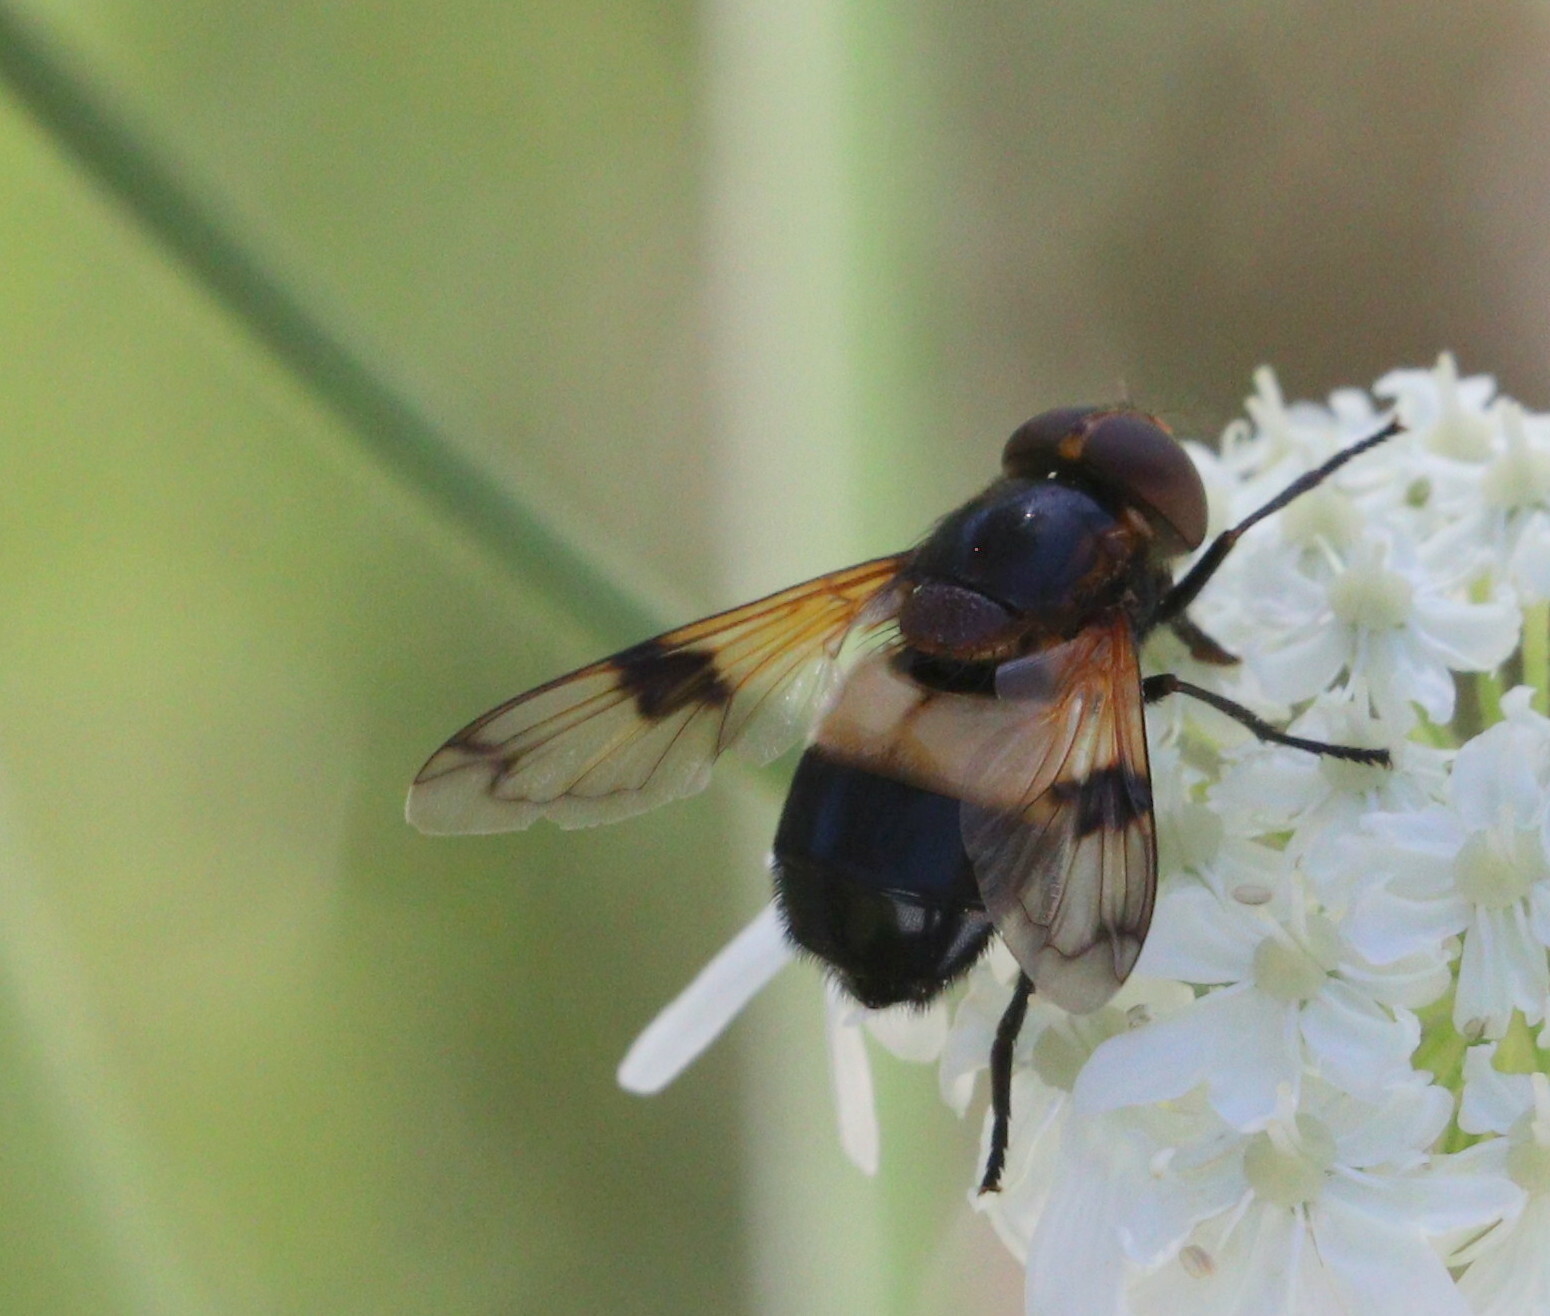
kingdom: Animalia
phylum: Arthropoda
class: Insecta
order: Diptera
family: Syrphidae
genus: Volucella
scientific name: Volucella pellucens
